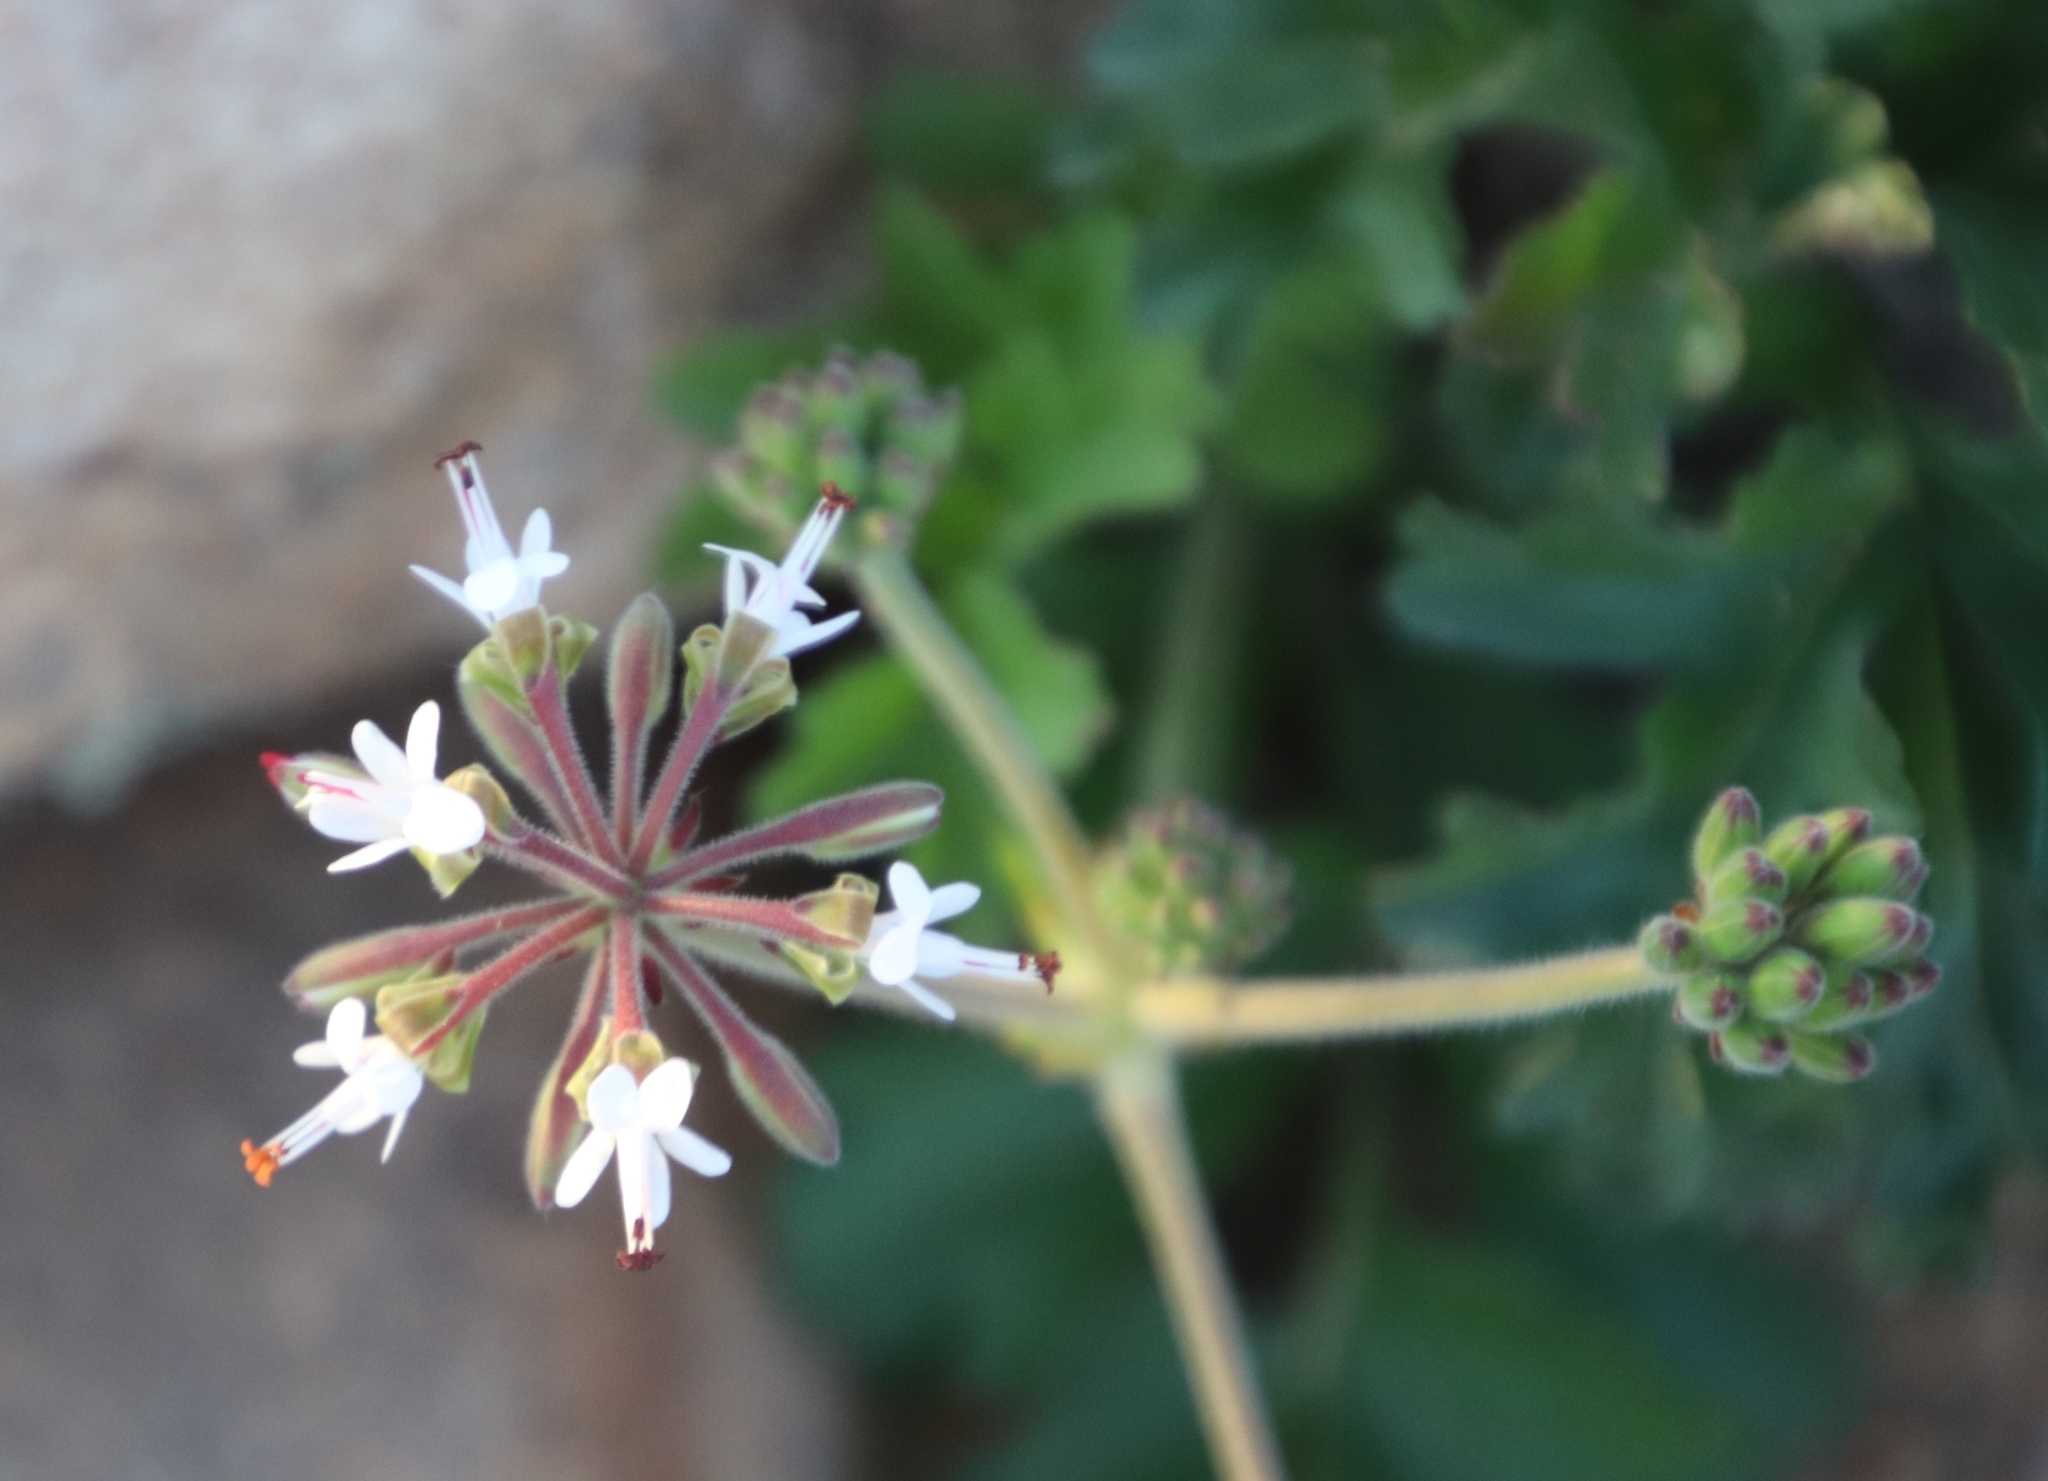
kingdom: Plantae
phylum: Tracheophyta
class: Magnoliopsida
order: Geraniales
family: Geraniaceae
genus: Pelargonium
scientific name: Pelargonium parvipetalum
